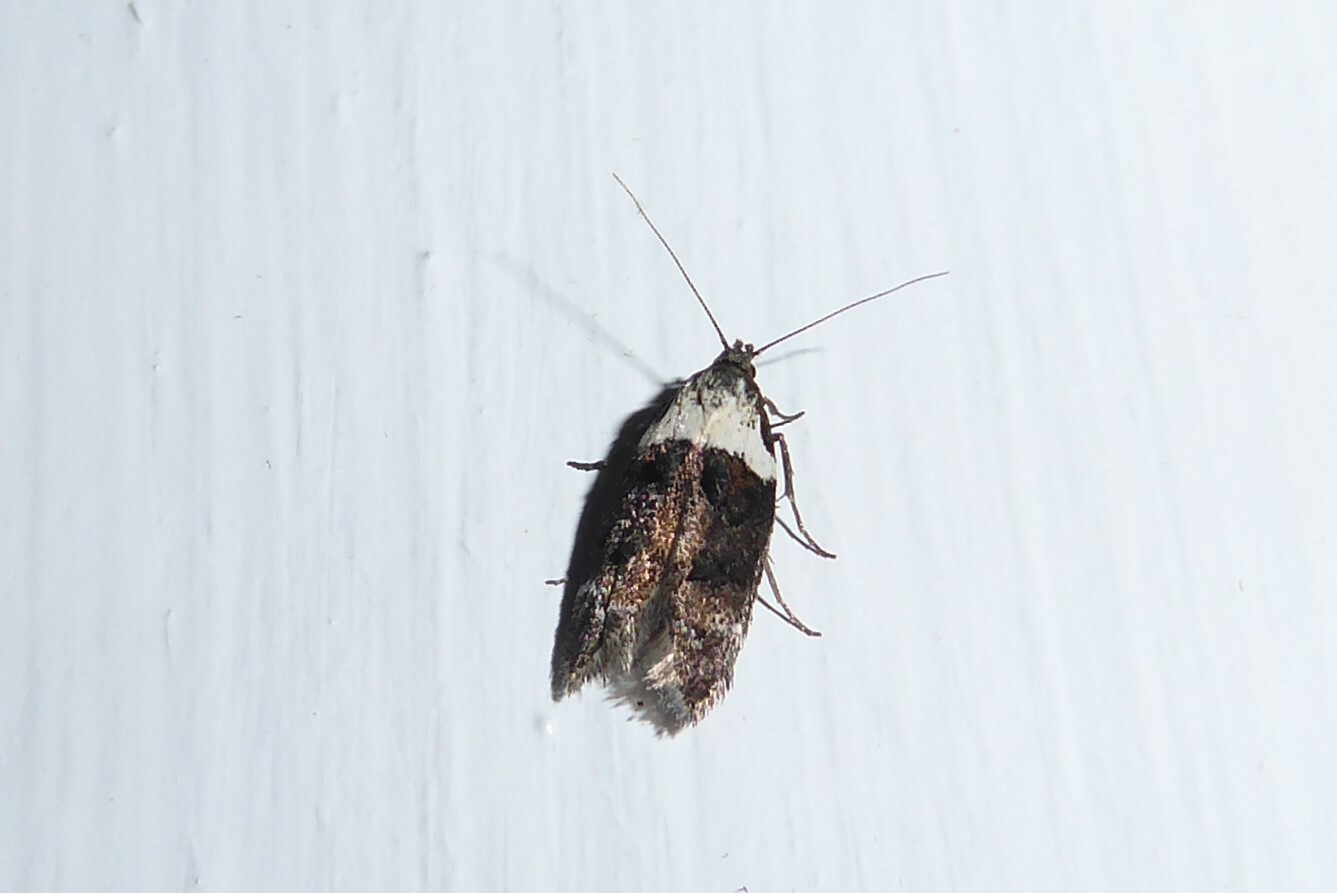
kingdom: Animalia
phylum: Arthropoda
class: Insecta
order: Lepidoptera
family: Oecophoridae
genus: Trachypepla
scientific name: Trachypepla conspicuella
